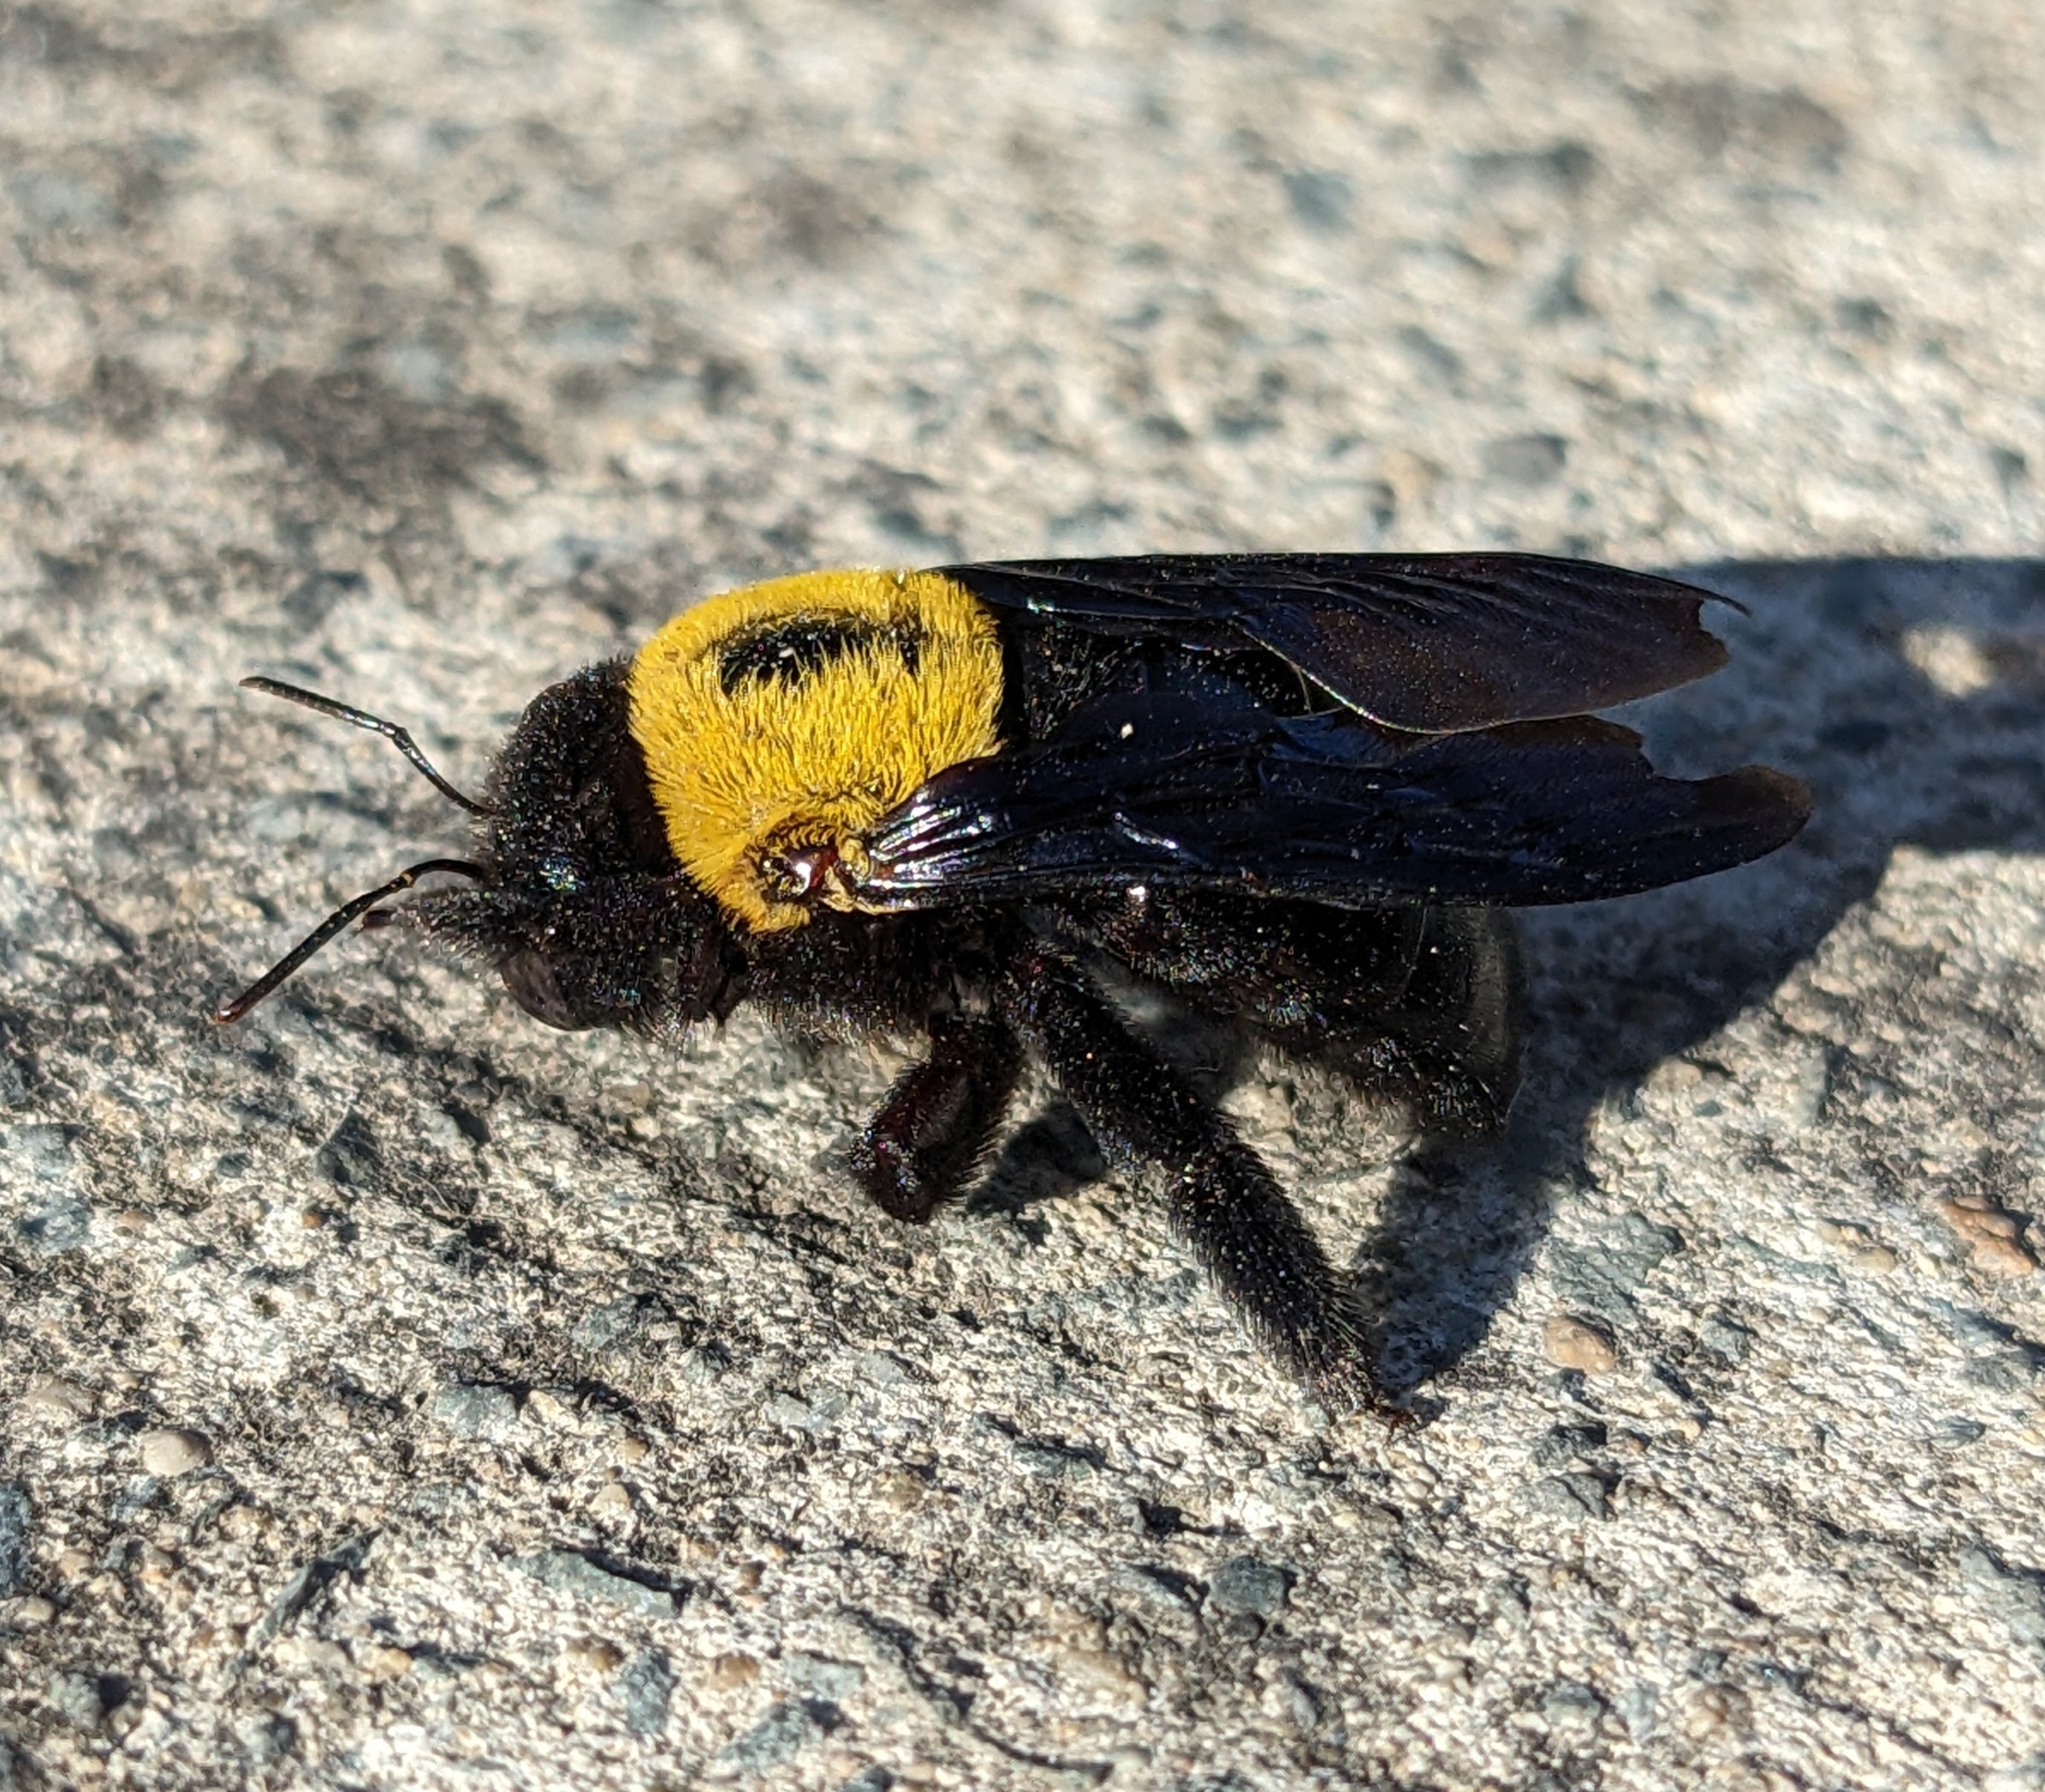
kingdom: Animalia
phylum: Arthropoda
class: Insecta
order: Hymenoptera
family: Apidae
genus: Xylocopa
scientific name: Xylocopa pubescens
